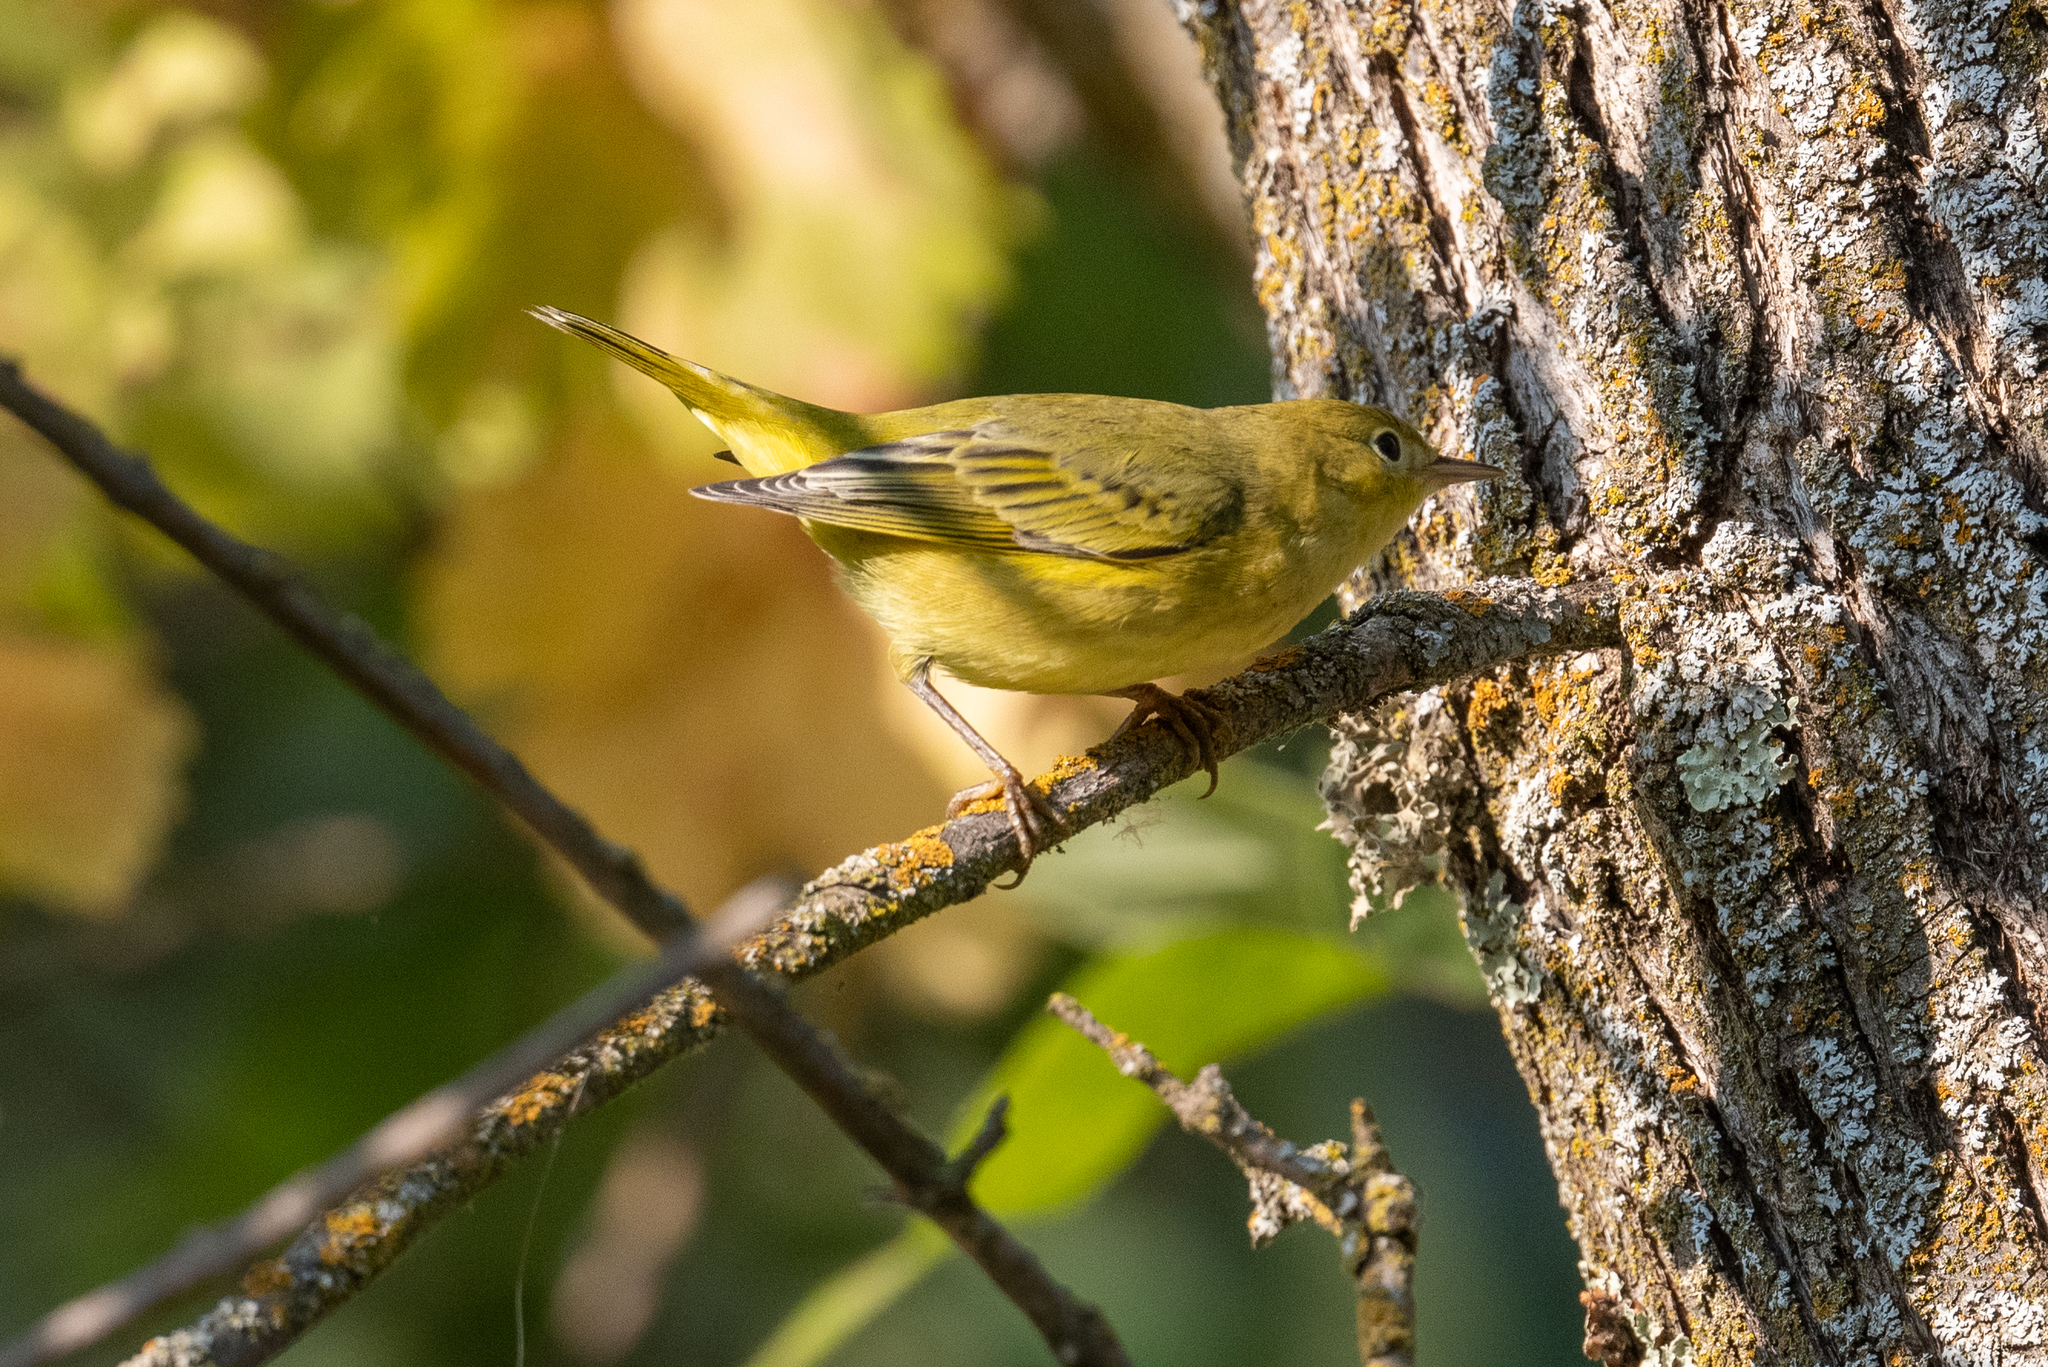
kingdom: Animalia
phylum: Chordata
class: Aves
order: Passeriformes
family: Parulidae
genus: Setophaga
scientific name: Setophaga petechia
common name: Yellow warbler
